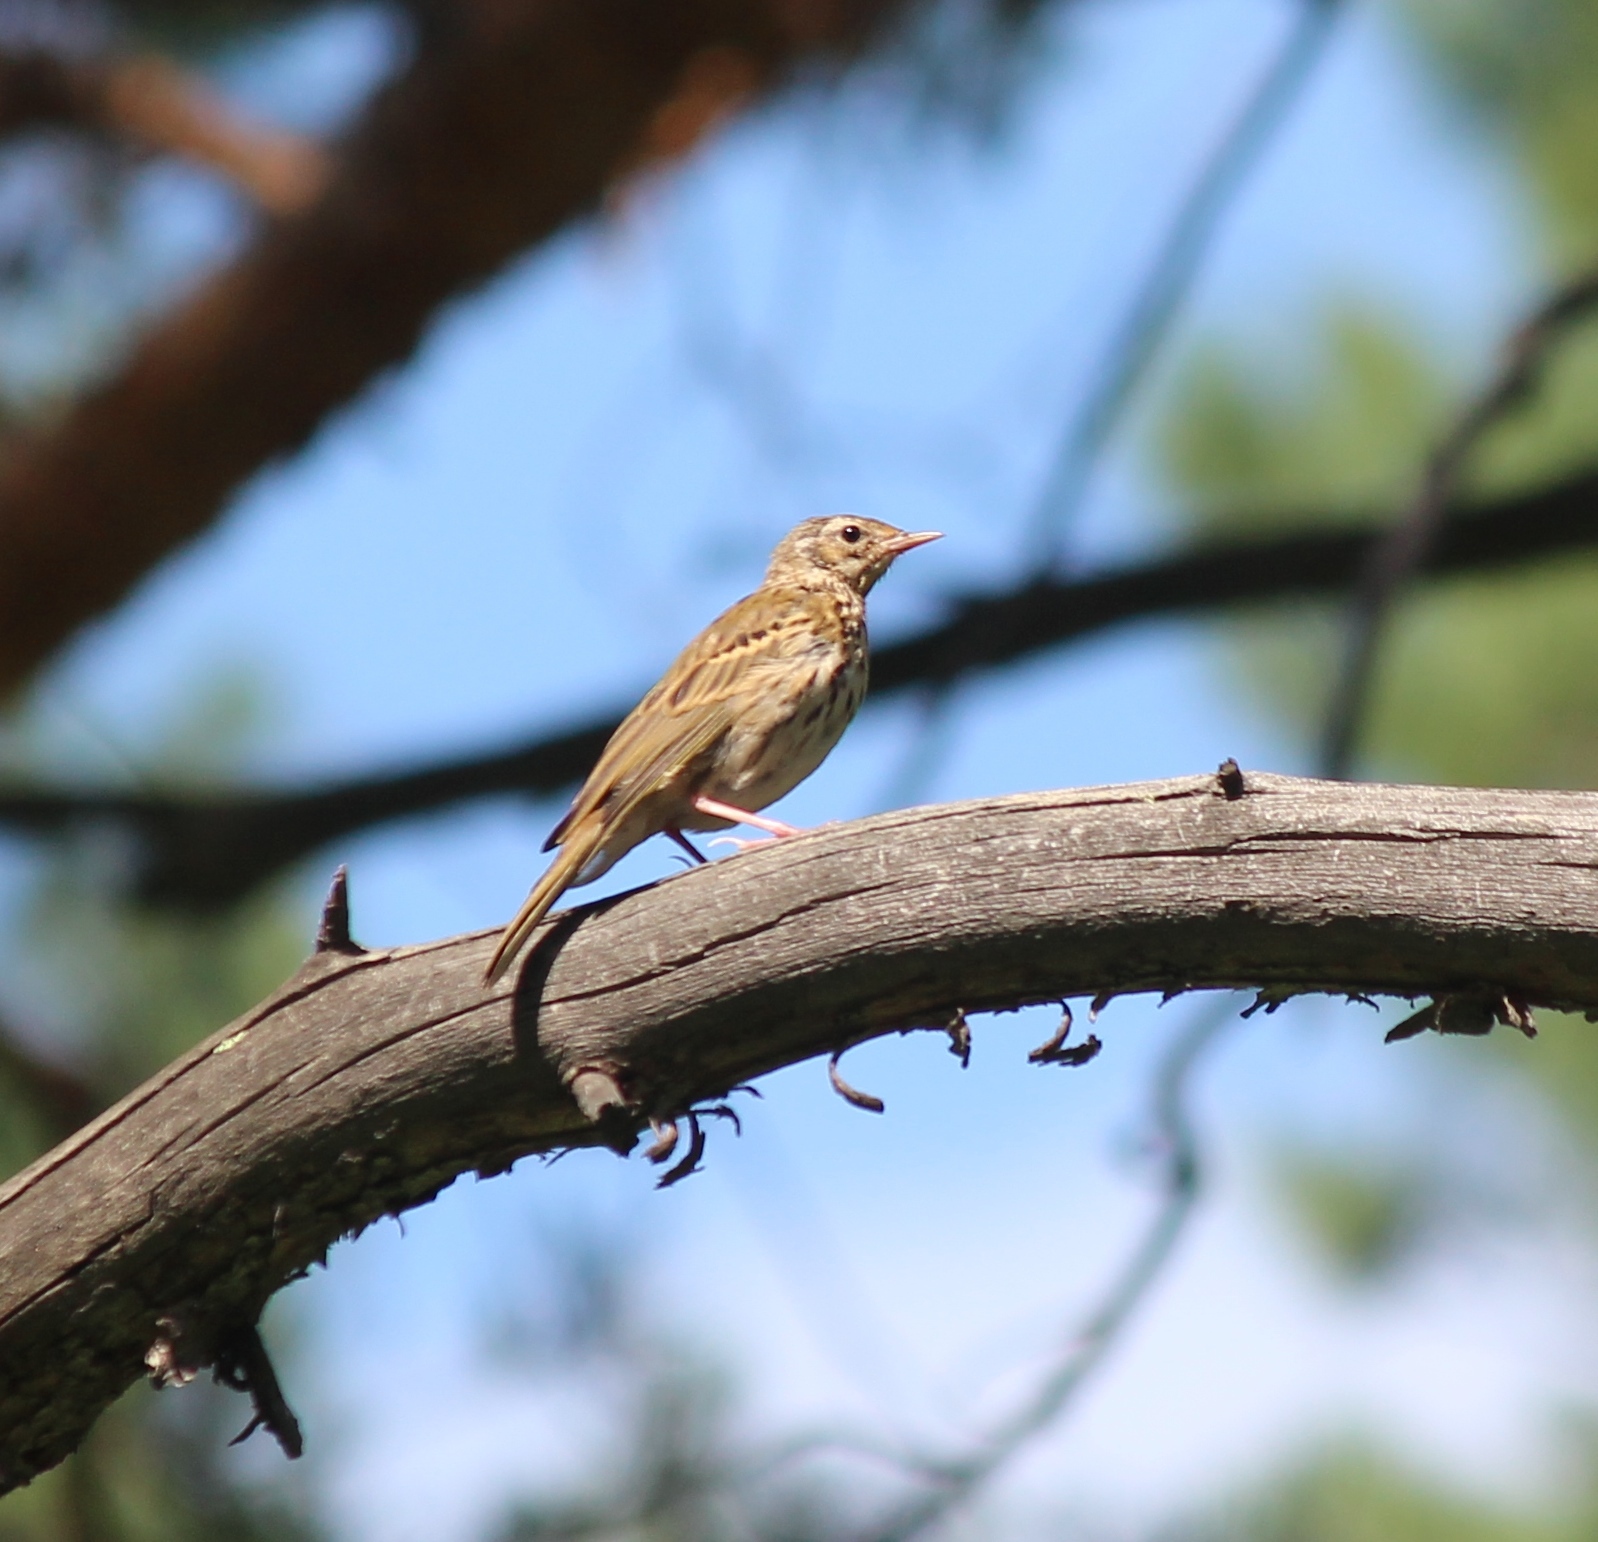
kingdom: Animalia
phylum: Chordata
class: Aves
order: Passeriformes
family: Motacillidae
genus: Anthus
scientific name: Anthus hodgsoni
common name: Olive-backed pipit
